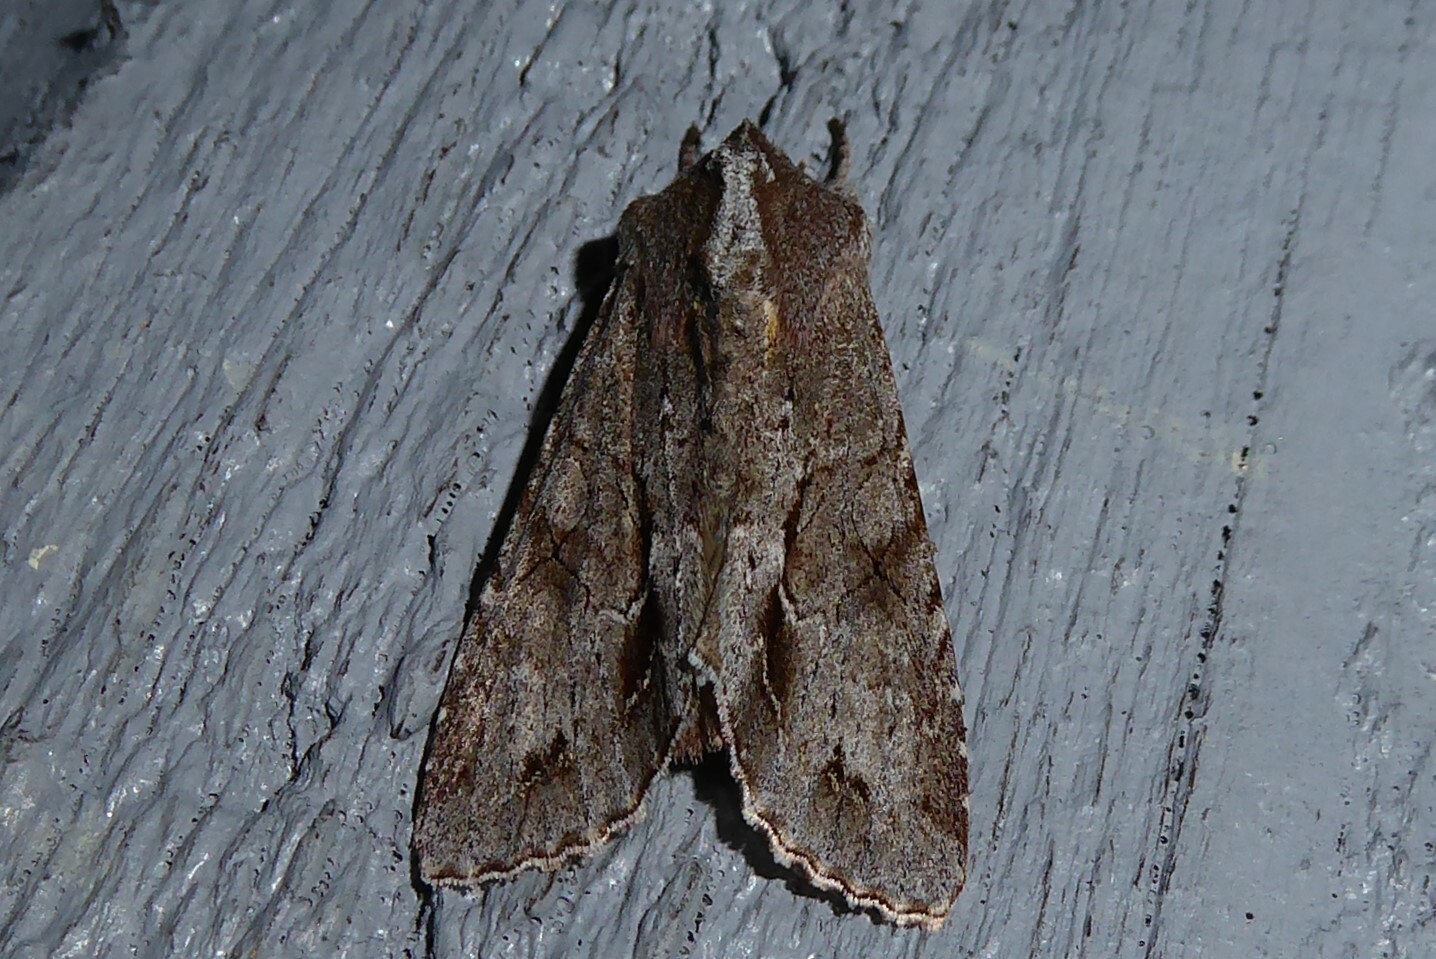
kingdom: Animalia
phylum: Arthropoda
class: Insecta
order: Lepidoptera
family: Noctuidae
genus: Ichneutica
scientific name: Ichneutica
